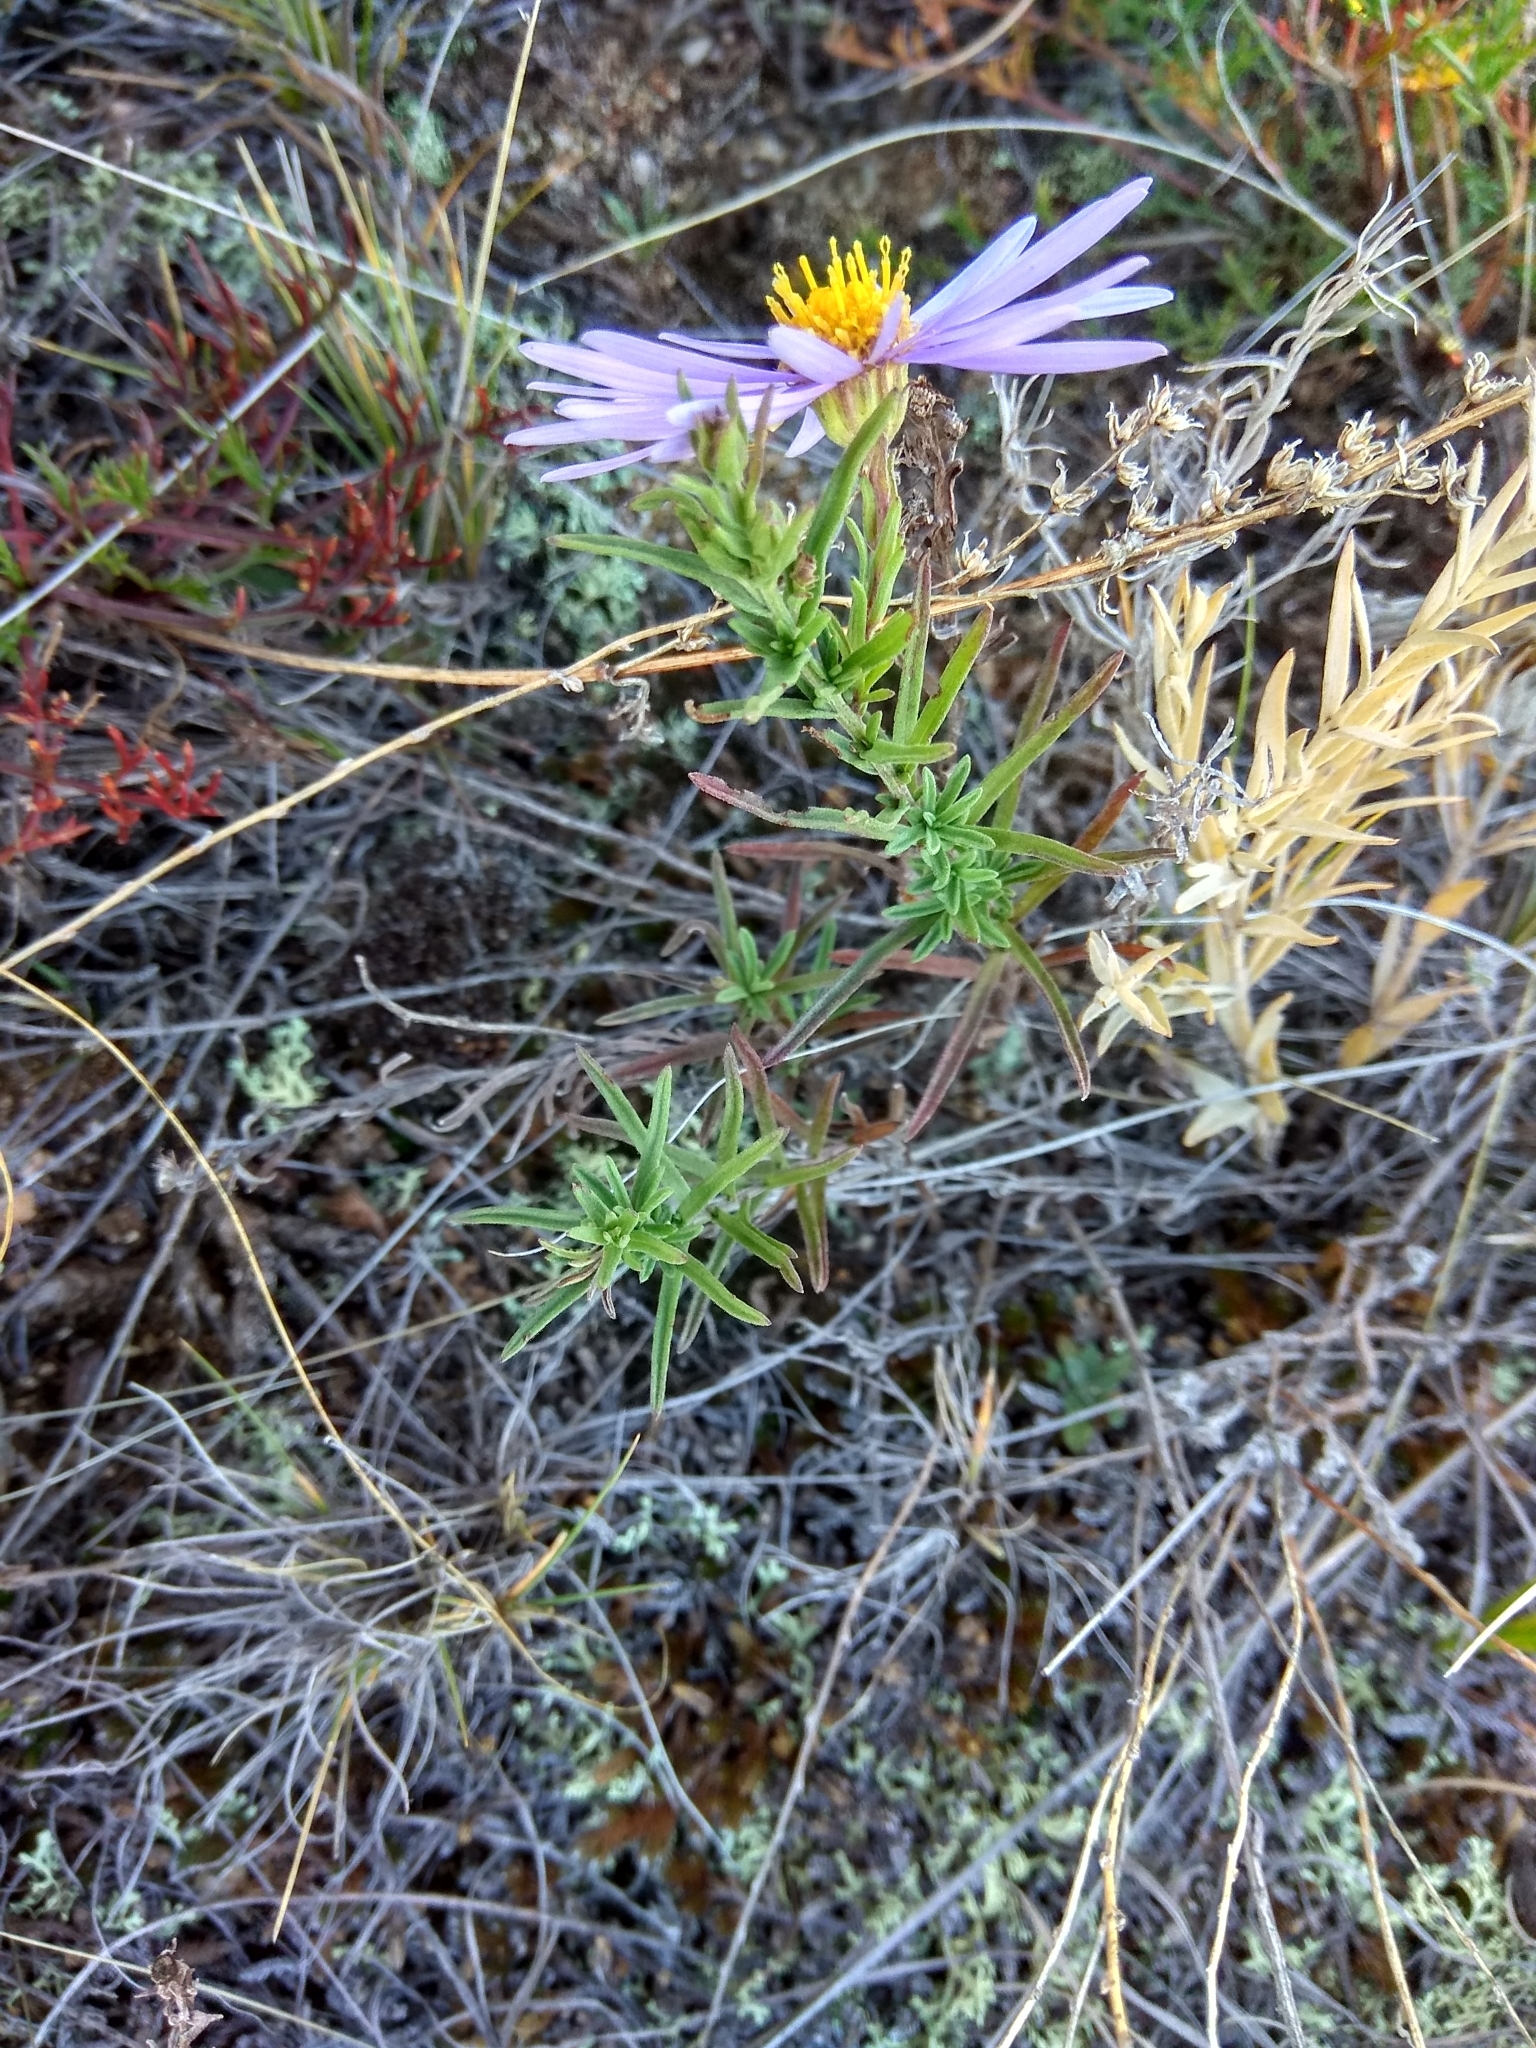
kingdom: Plantae
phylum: Tracheophyta
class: Magnoliopsida
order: Asterales
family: Asteraceae
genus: Heteropappus
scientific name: Heteropappus altaicus
